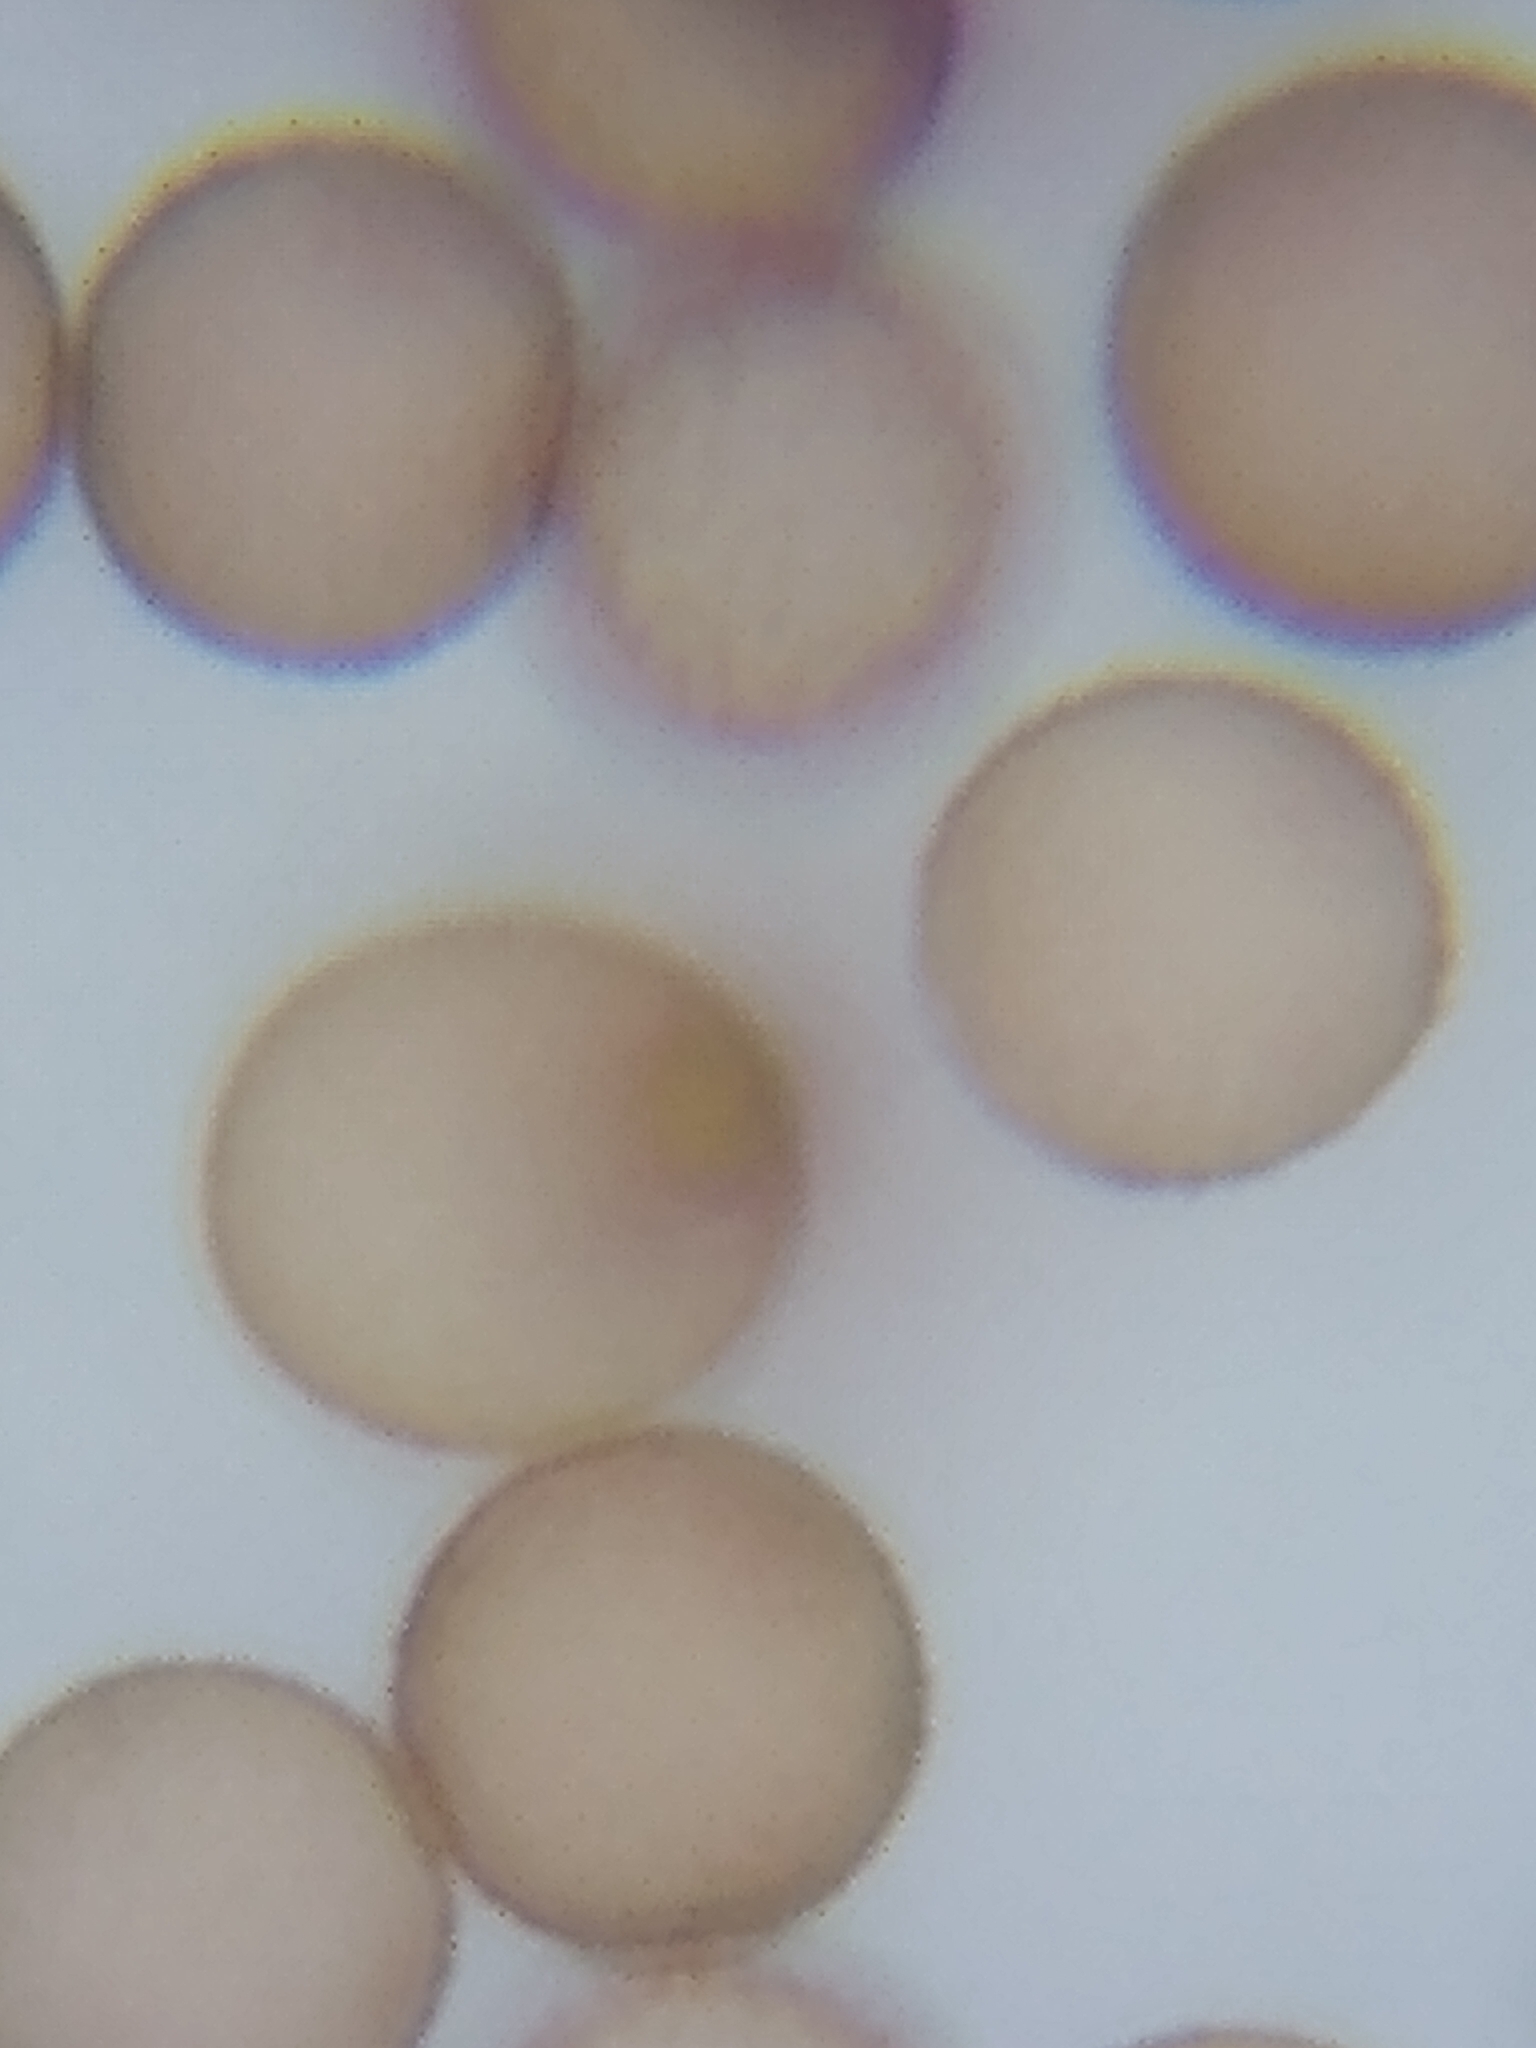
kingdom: Protozoa
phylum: Mycetozoa
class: Myxomycetes
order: Physarales
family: Physaraceae
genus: Physarum
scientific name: Physarum virescens
